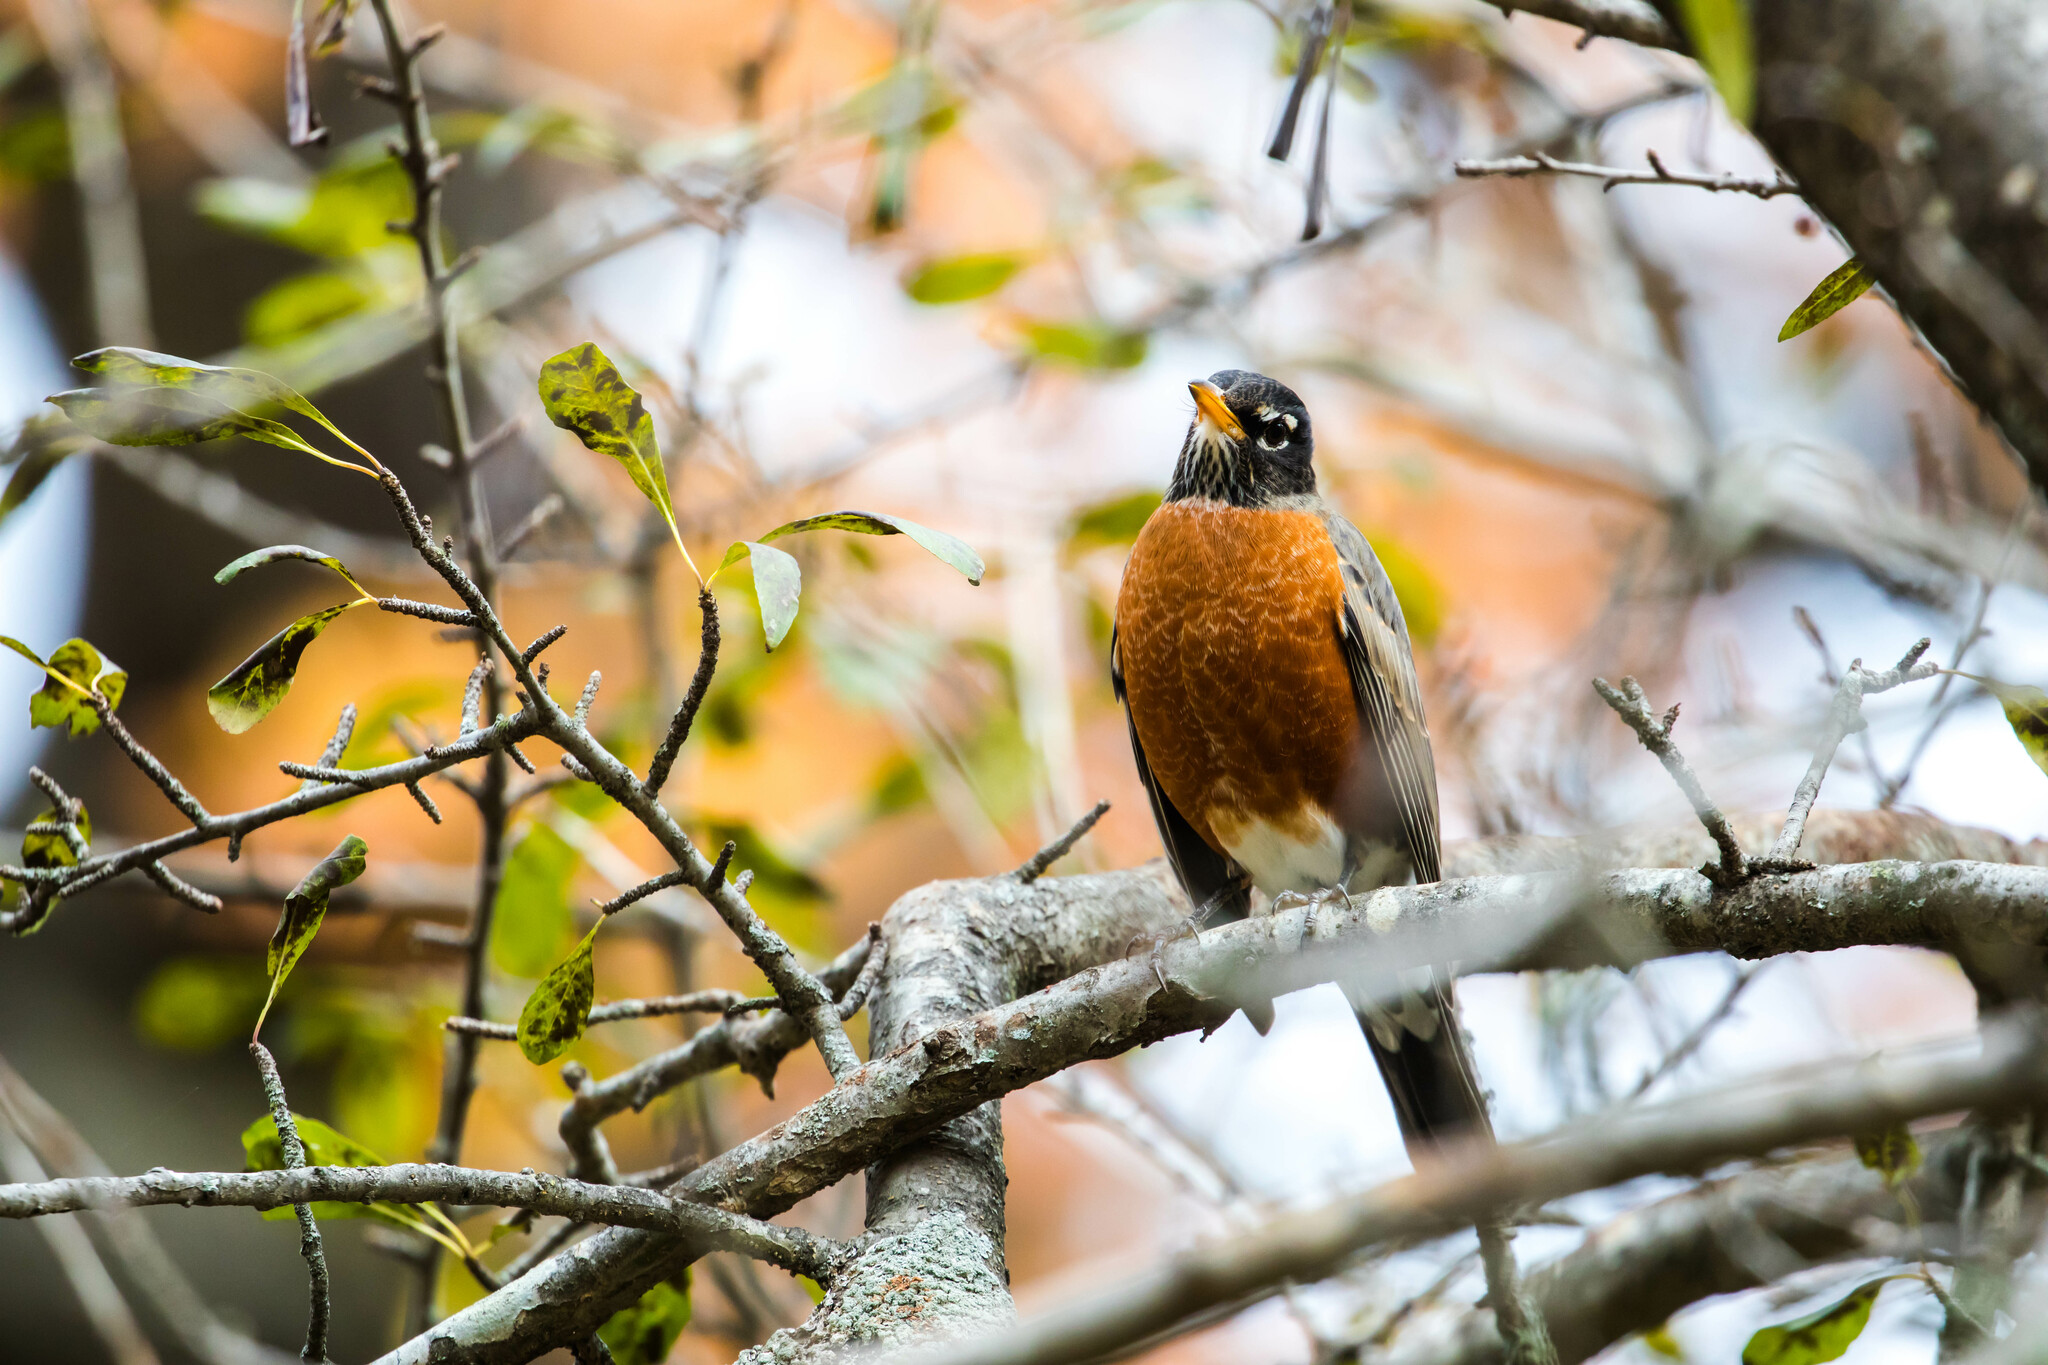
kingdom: Animalia
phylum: Chordata
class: Aves
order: Passeriformes
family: Turdidae
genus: Turdus
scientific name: Turdus migratorius
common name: American robin
